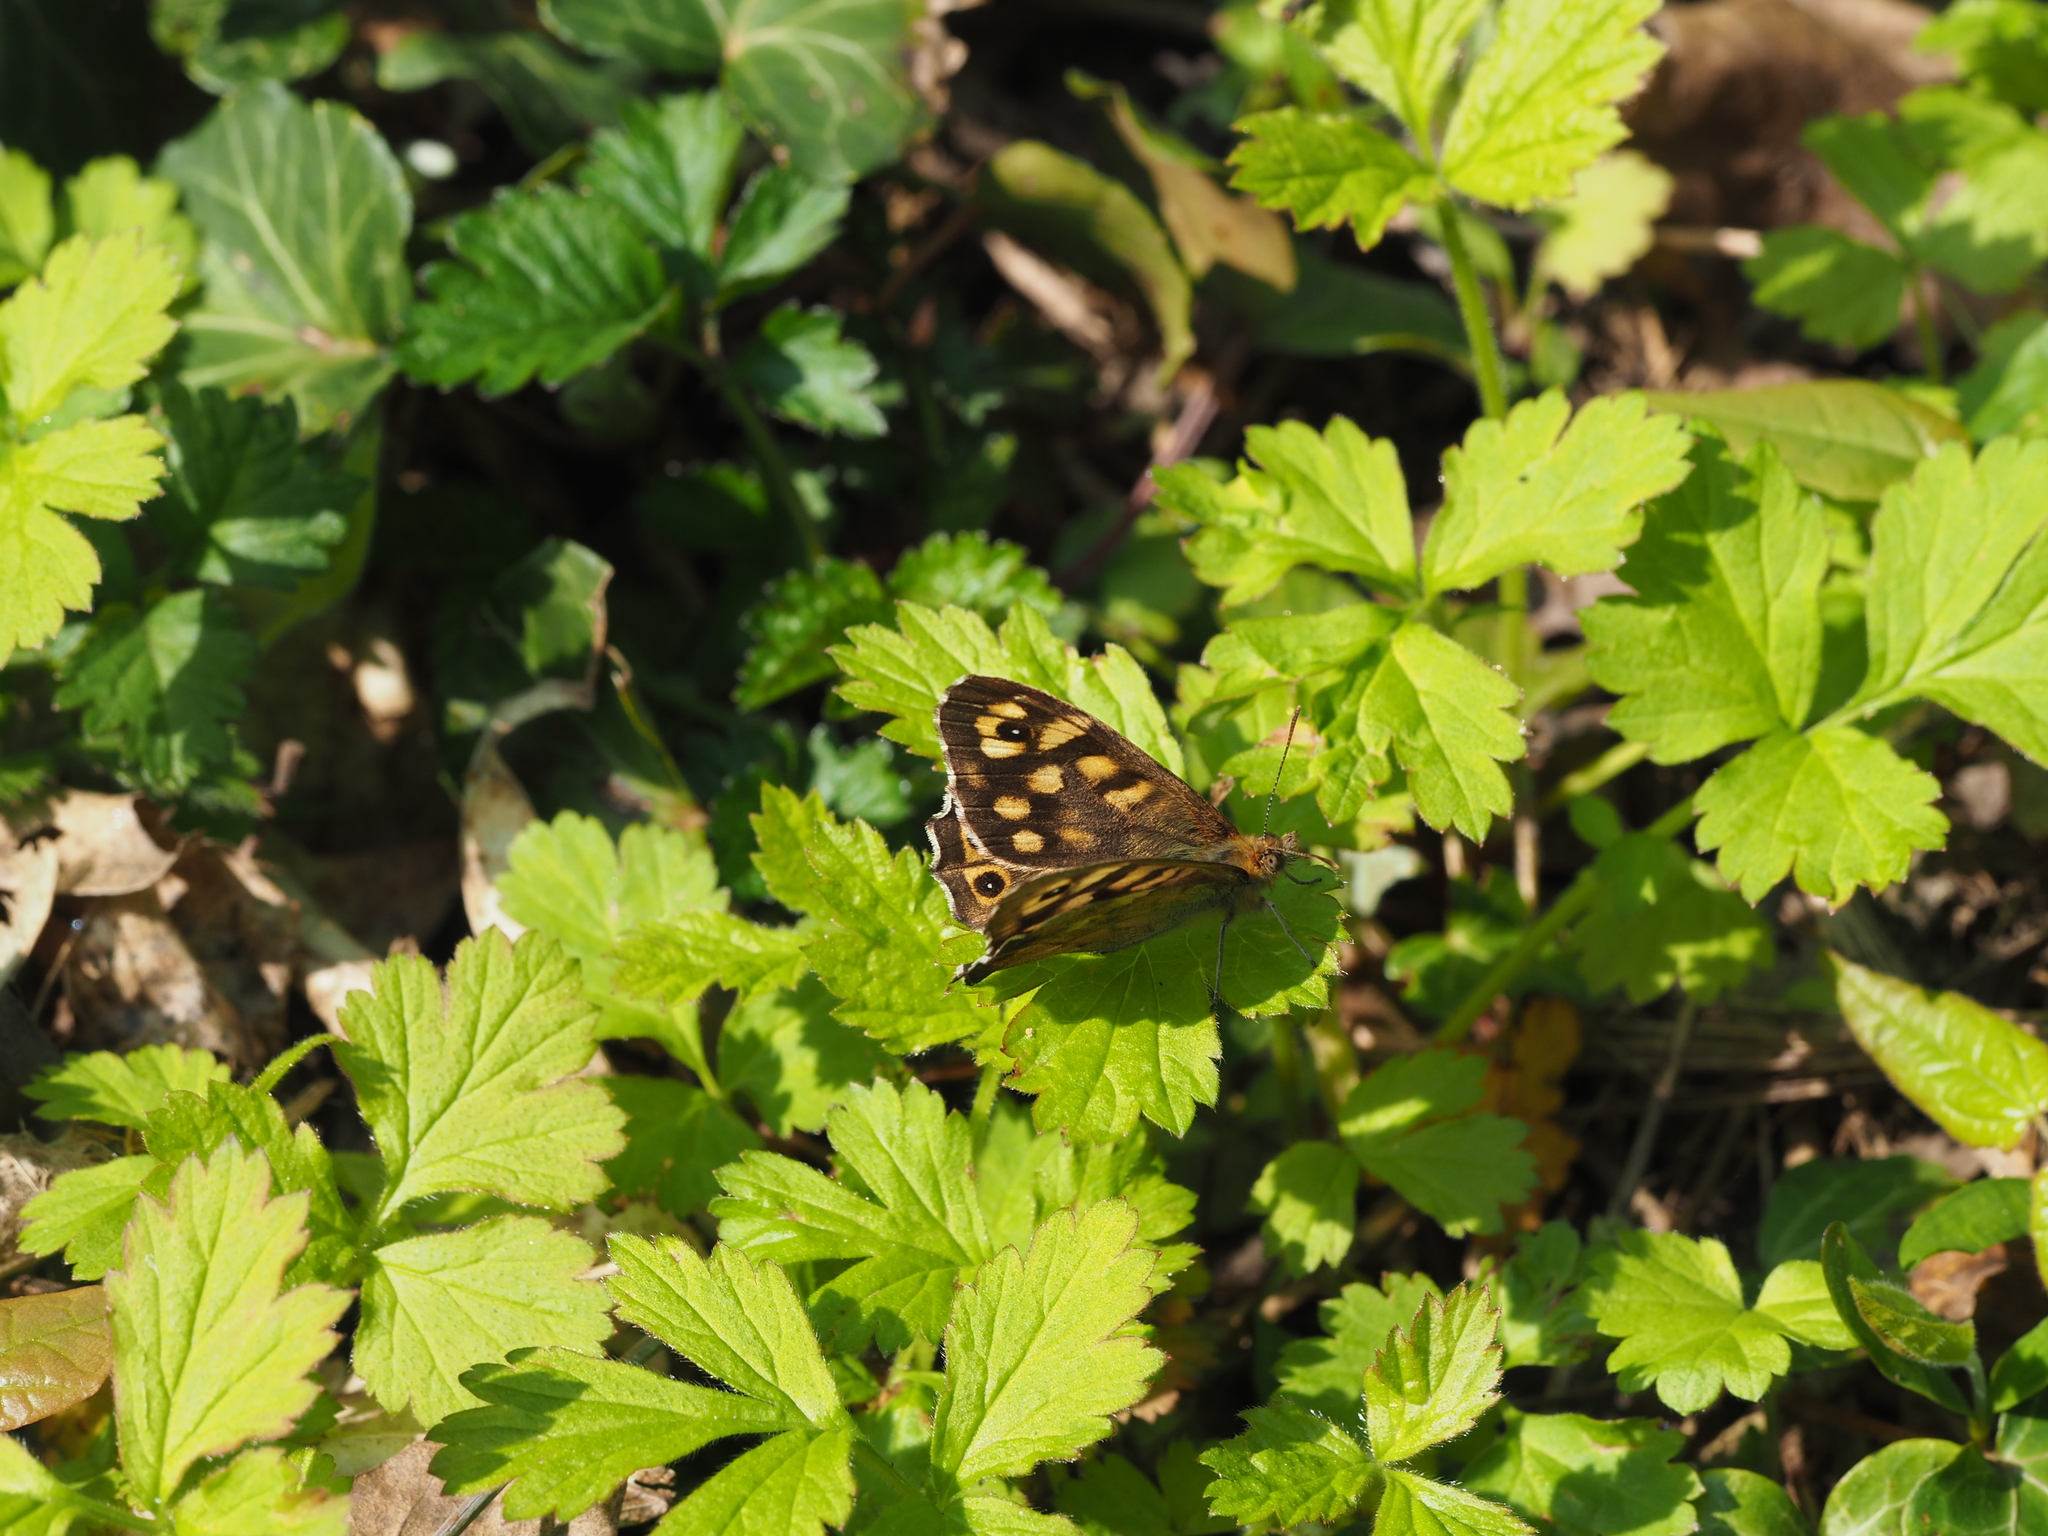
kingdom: Animalia
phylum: Arthropoda
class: Insecta
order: Lepidoptera
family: Nymphalidae
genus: Pararge
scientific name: Pararge aegeria
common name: Speckled wood
